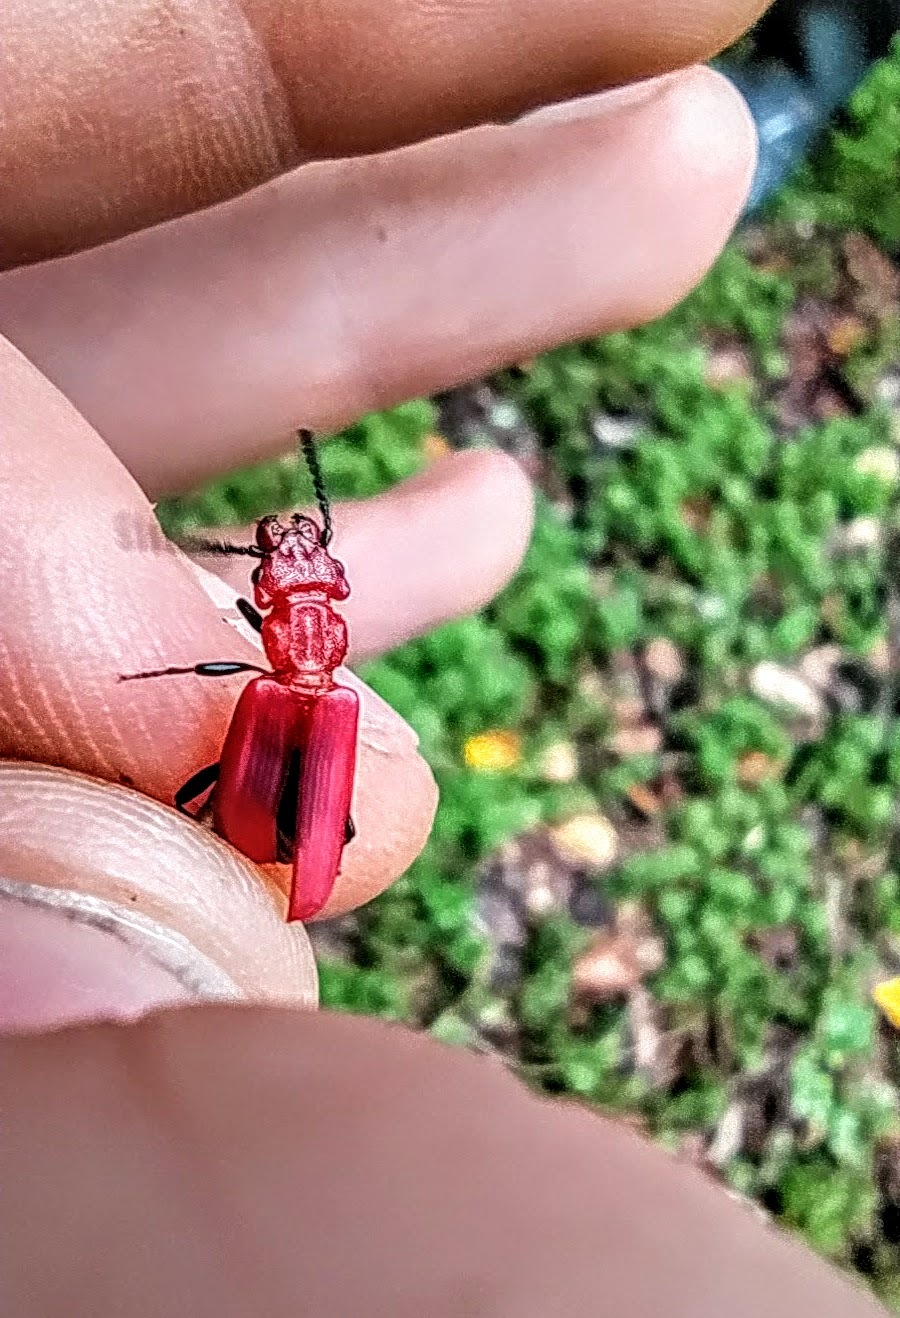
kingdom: Animalia
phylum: Arthropoda
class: Insecta
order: Coleoptera
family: Cucujidae
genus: Cucujus
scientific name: Cucujus haematodes
